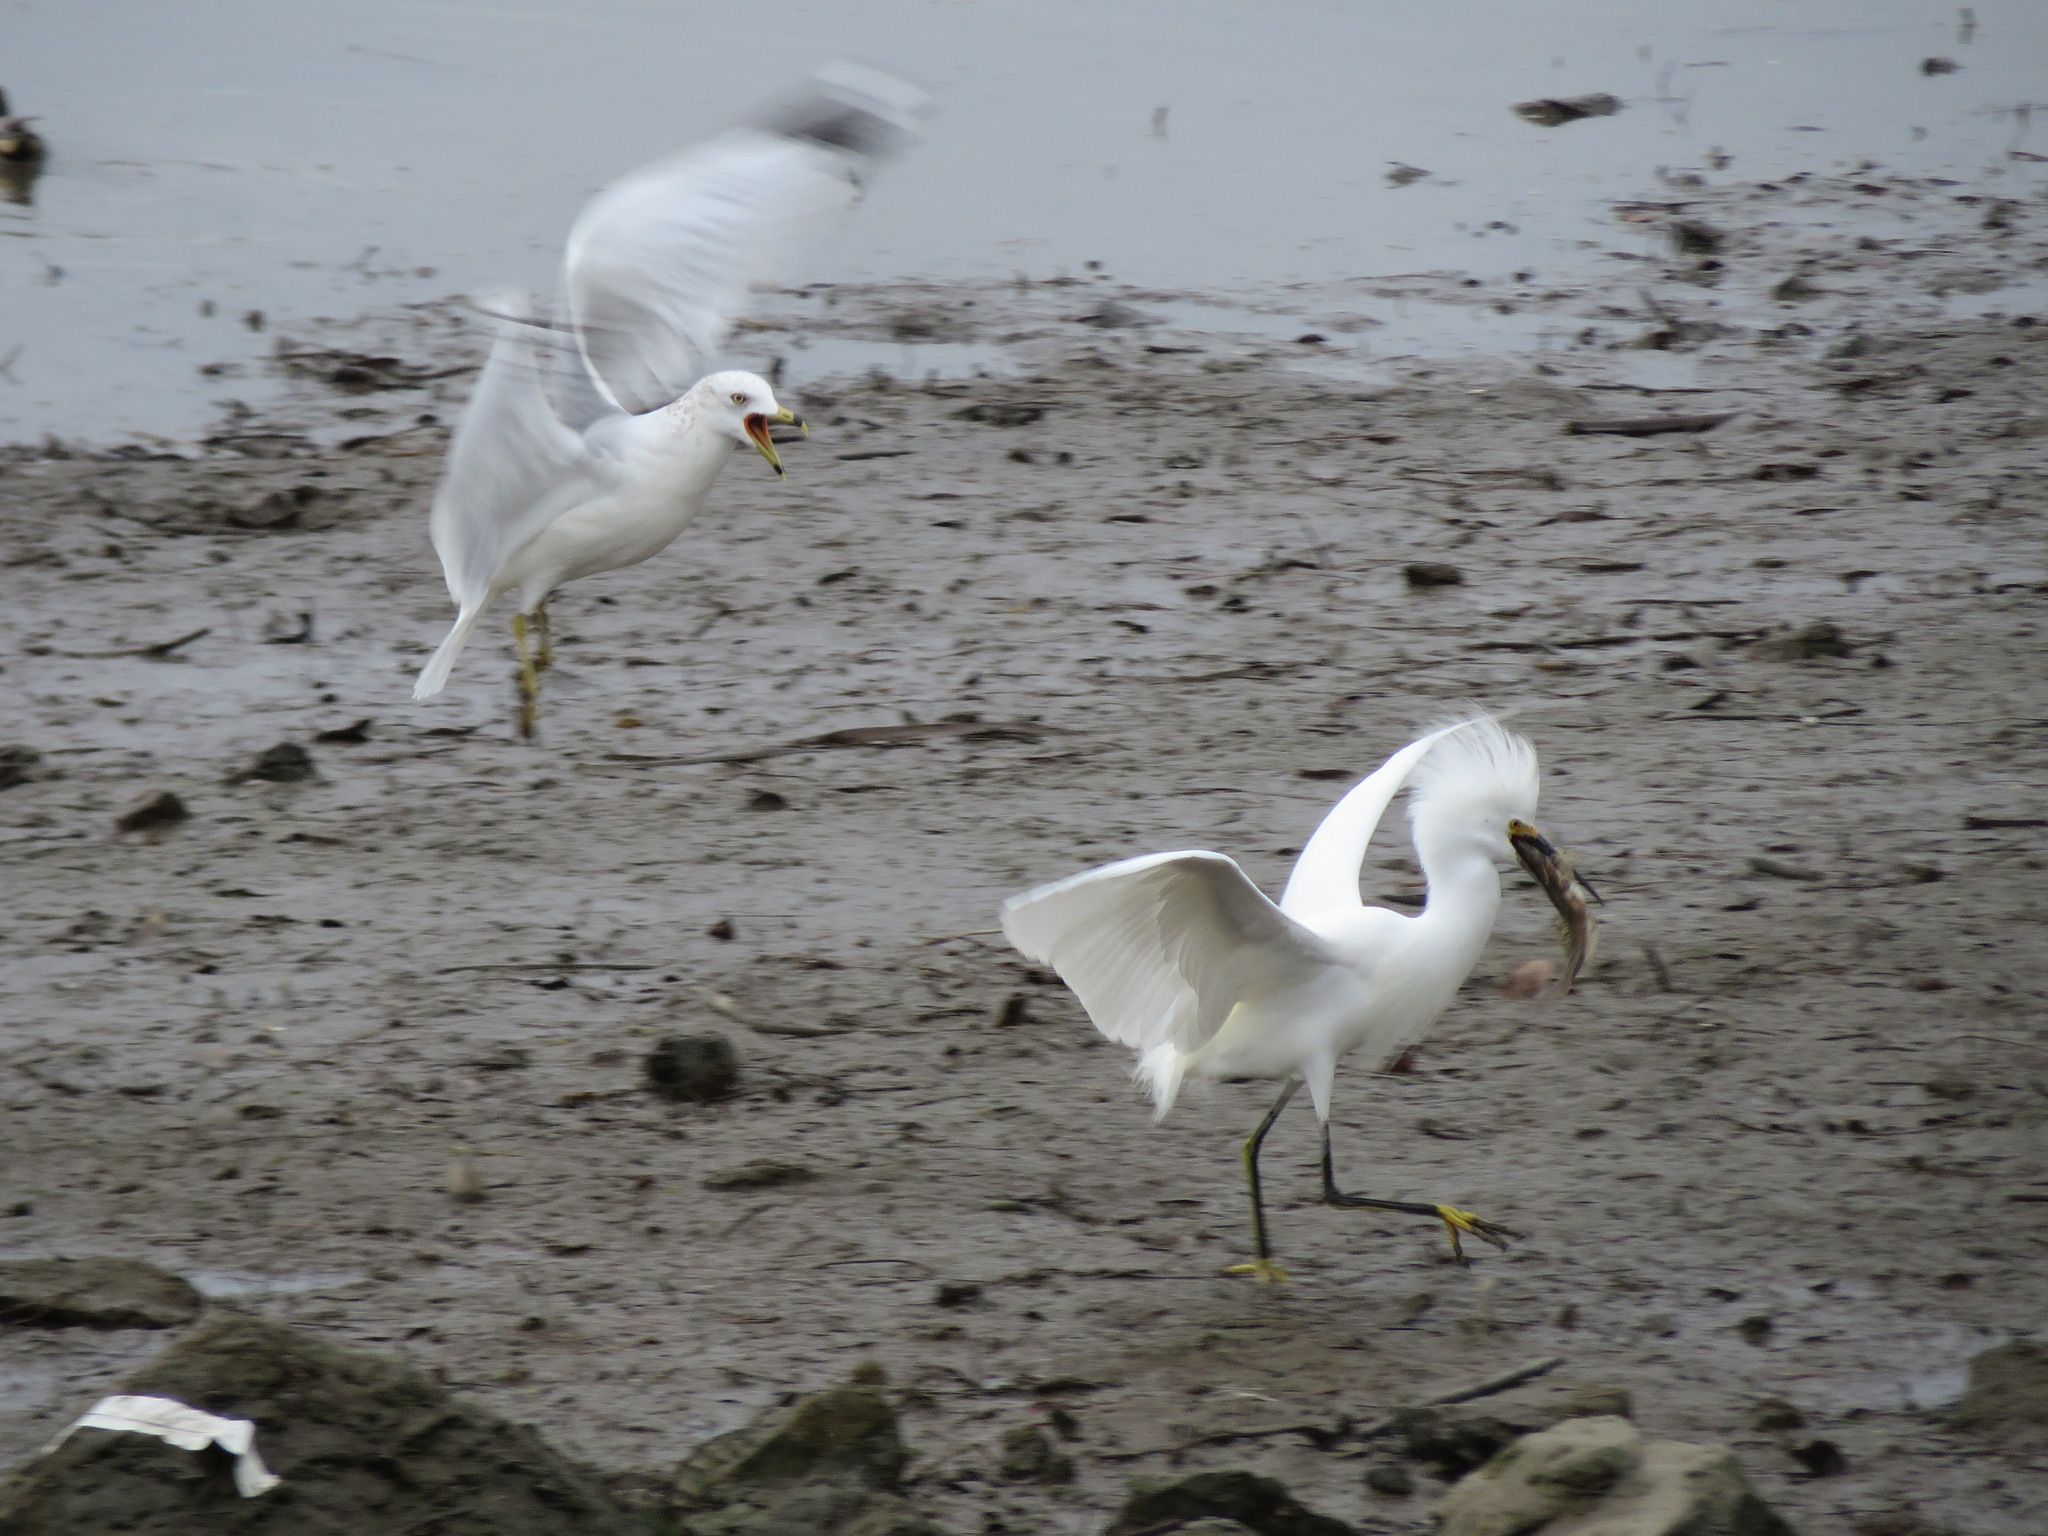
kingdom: Animalia
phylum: Chordata
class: Aves
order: Charadriiformes
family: Laridae
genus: Larus
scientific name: Larus delawarensis
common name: Ring-billed gull
